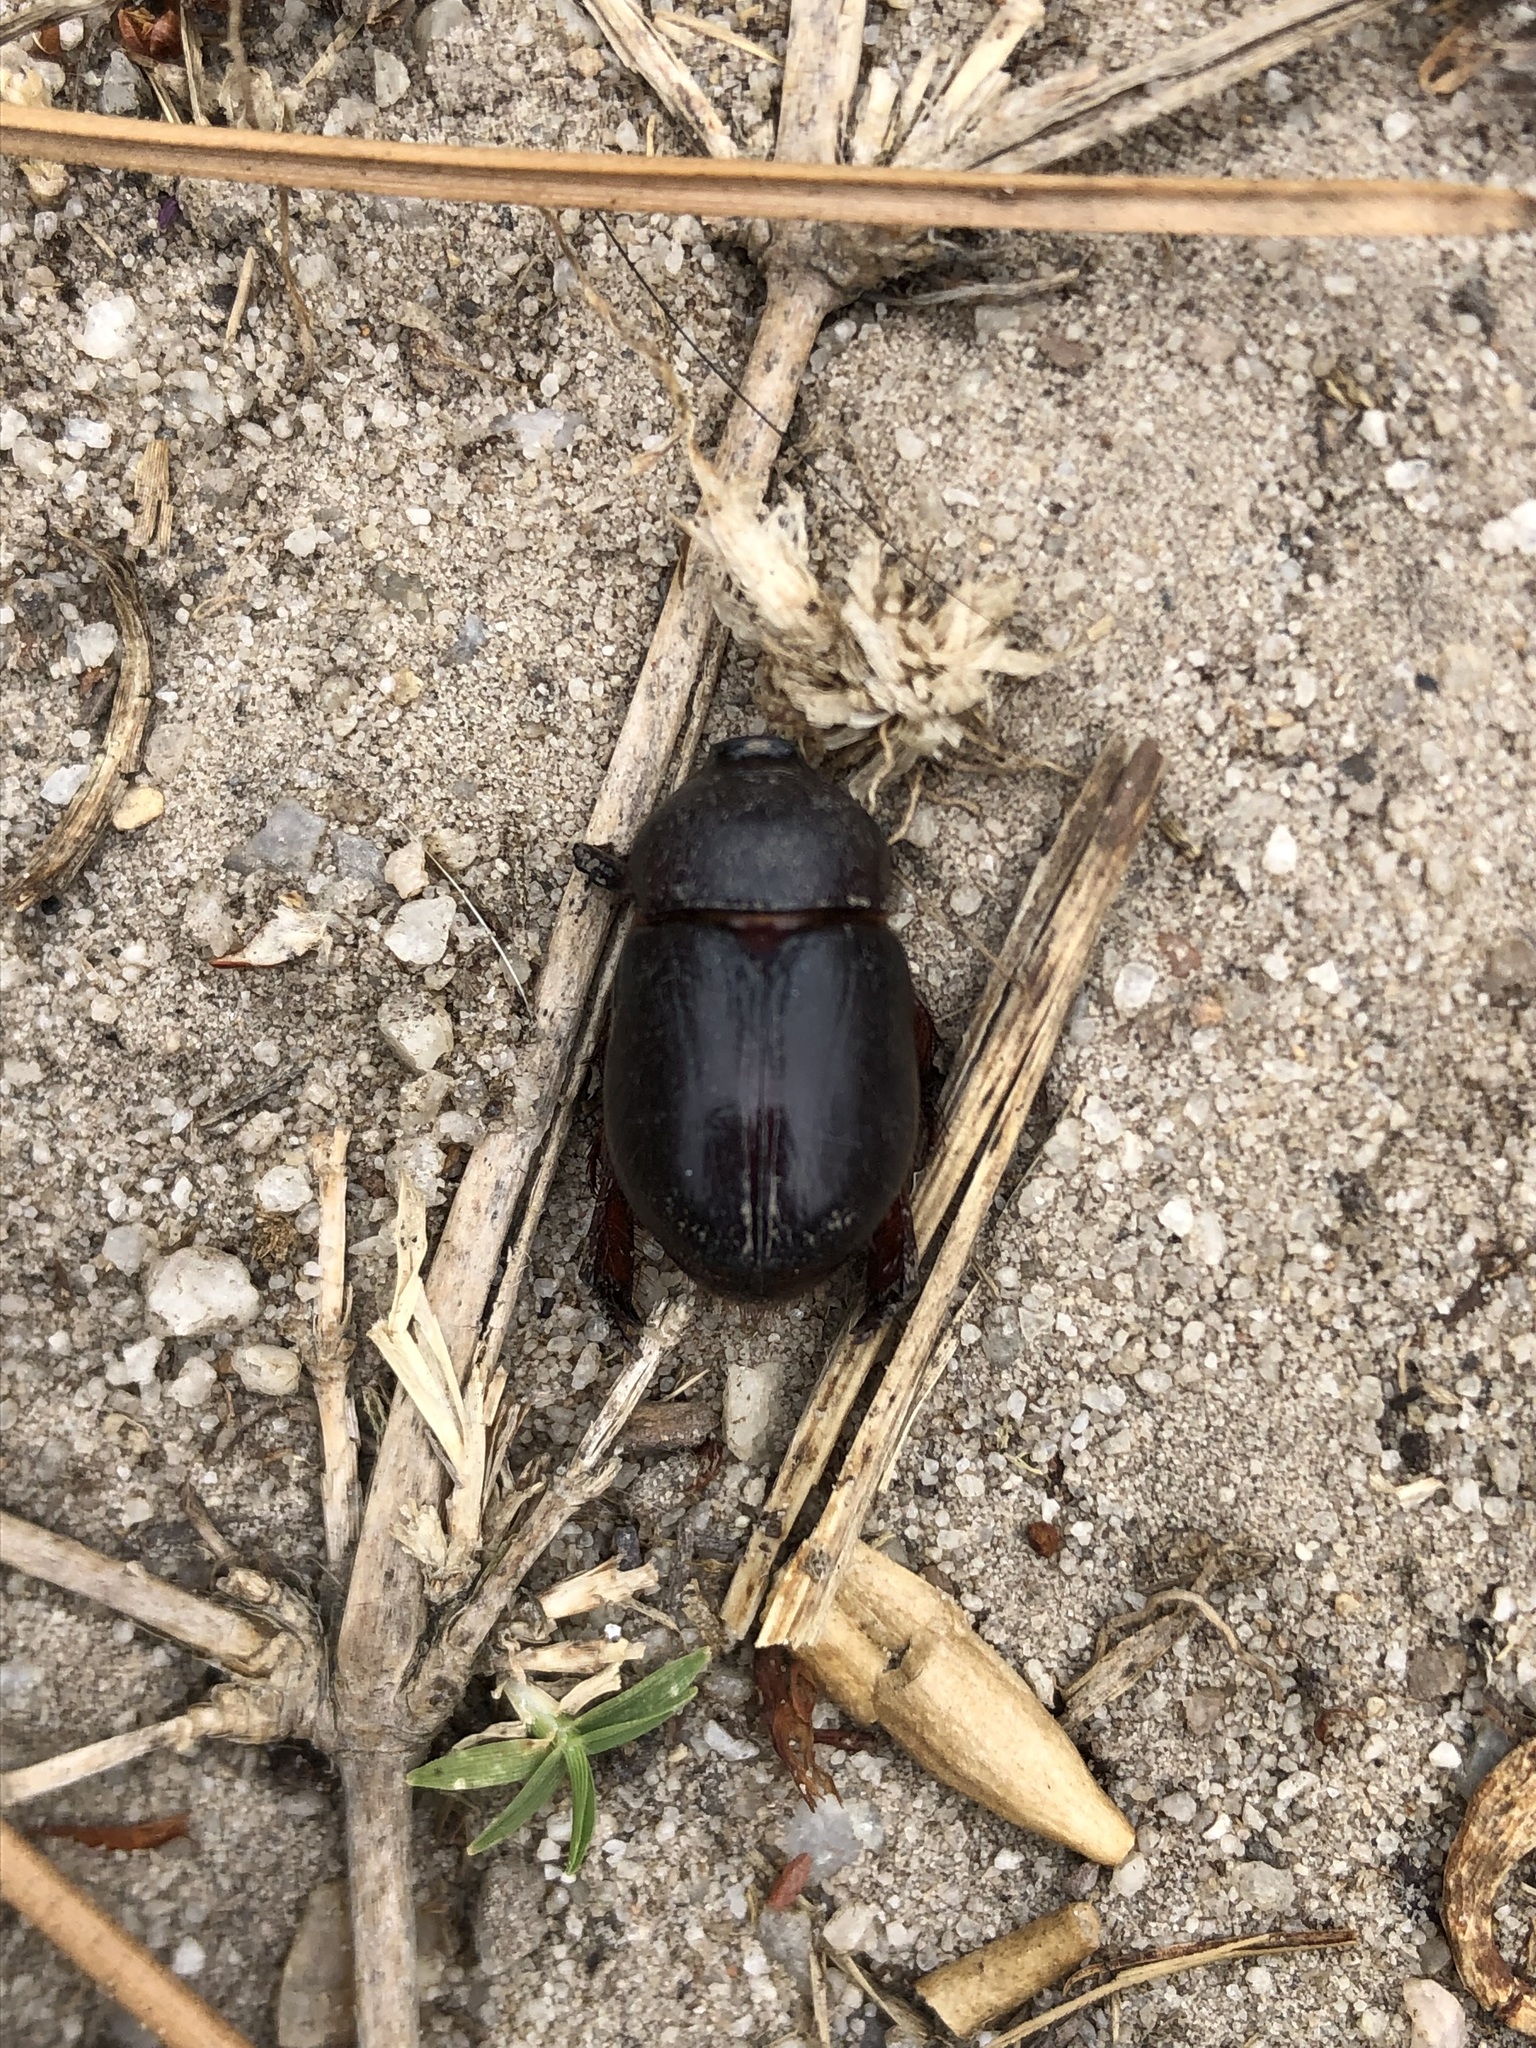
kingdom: Animalia
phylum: Arthropoda
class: Insecta
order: Coleoptera
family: Scarabaeidae
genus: Temnorhynchus
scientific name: Temnorhynchus retusus
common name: Plate-faced beetle
